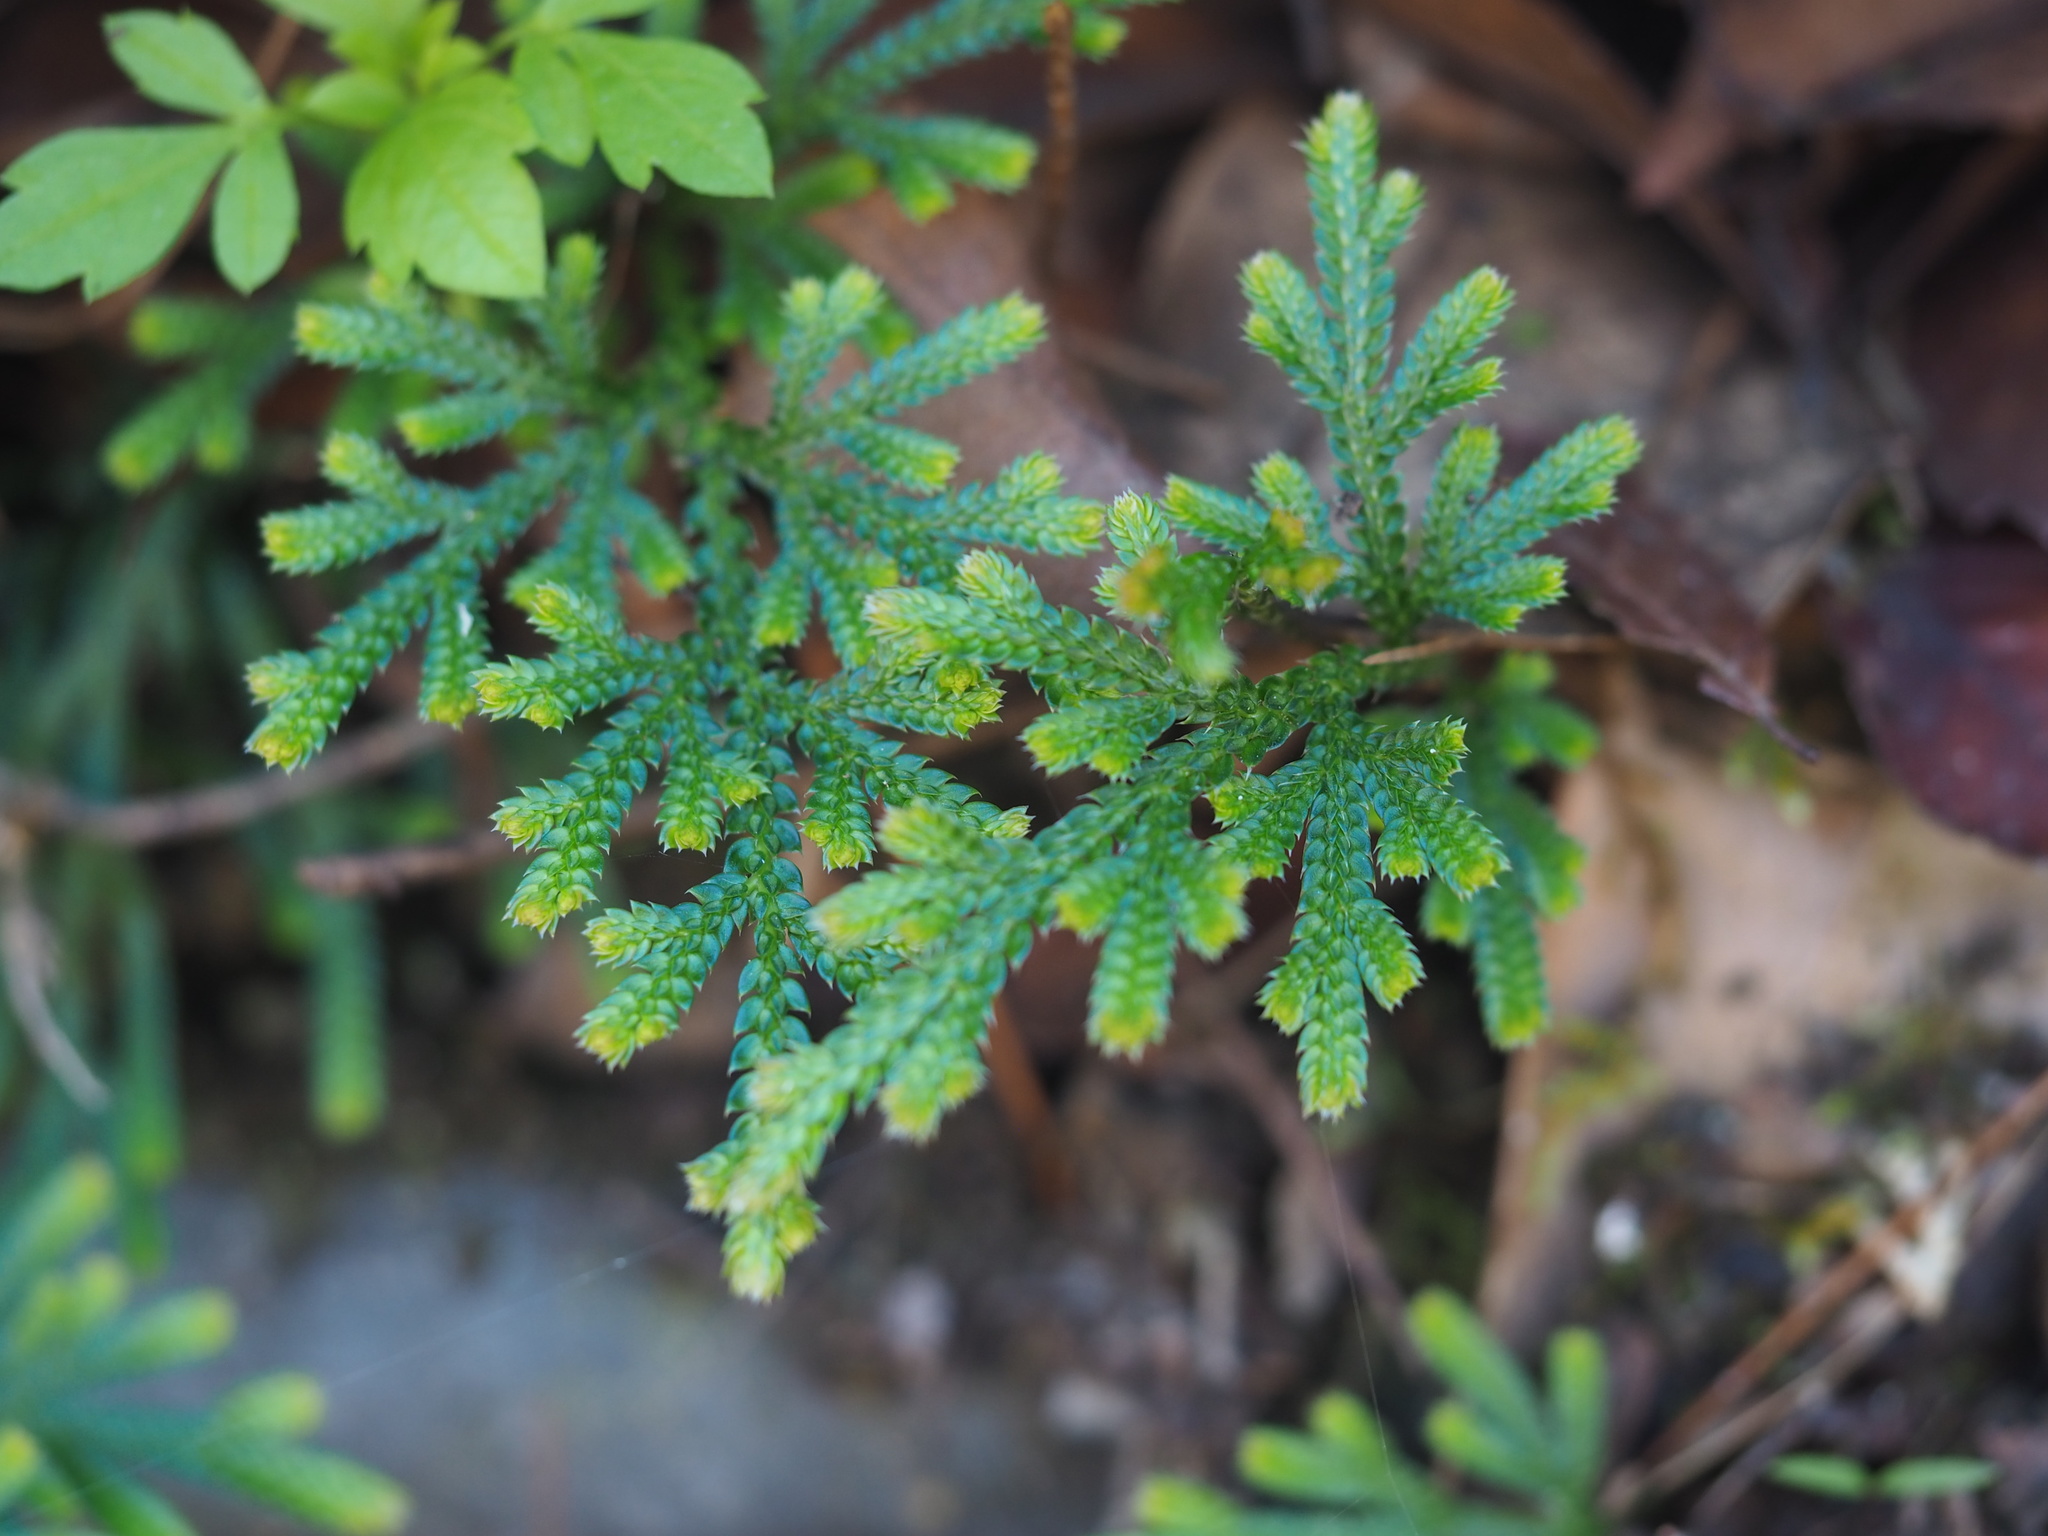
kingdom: Plantae
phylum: Tracheophyta
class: Lycopodiopsida
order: Selaginellales
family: Selaginellaceae
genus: Selaginella
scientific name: Selaginella stauntoniana
